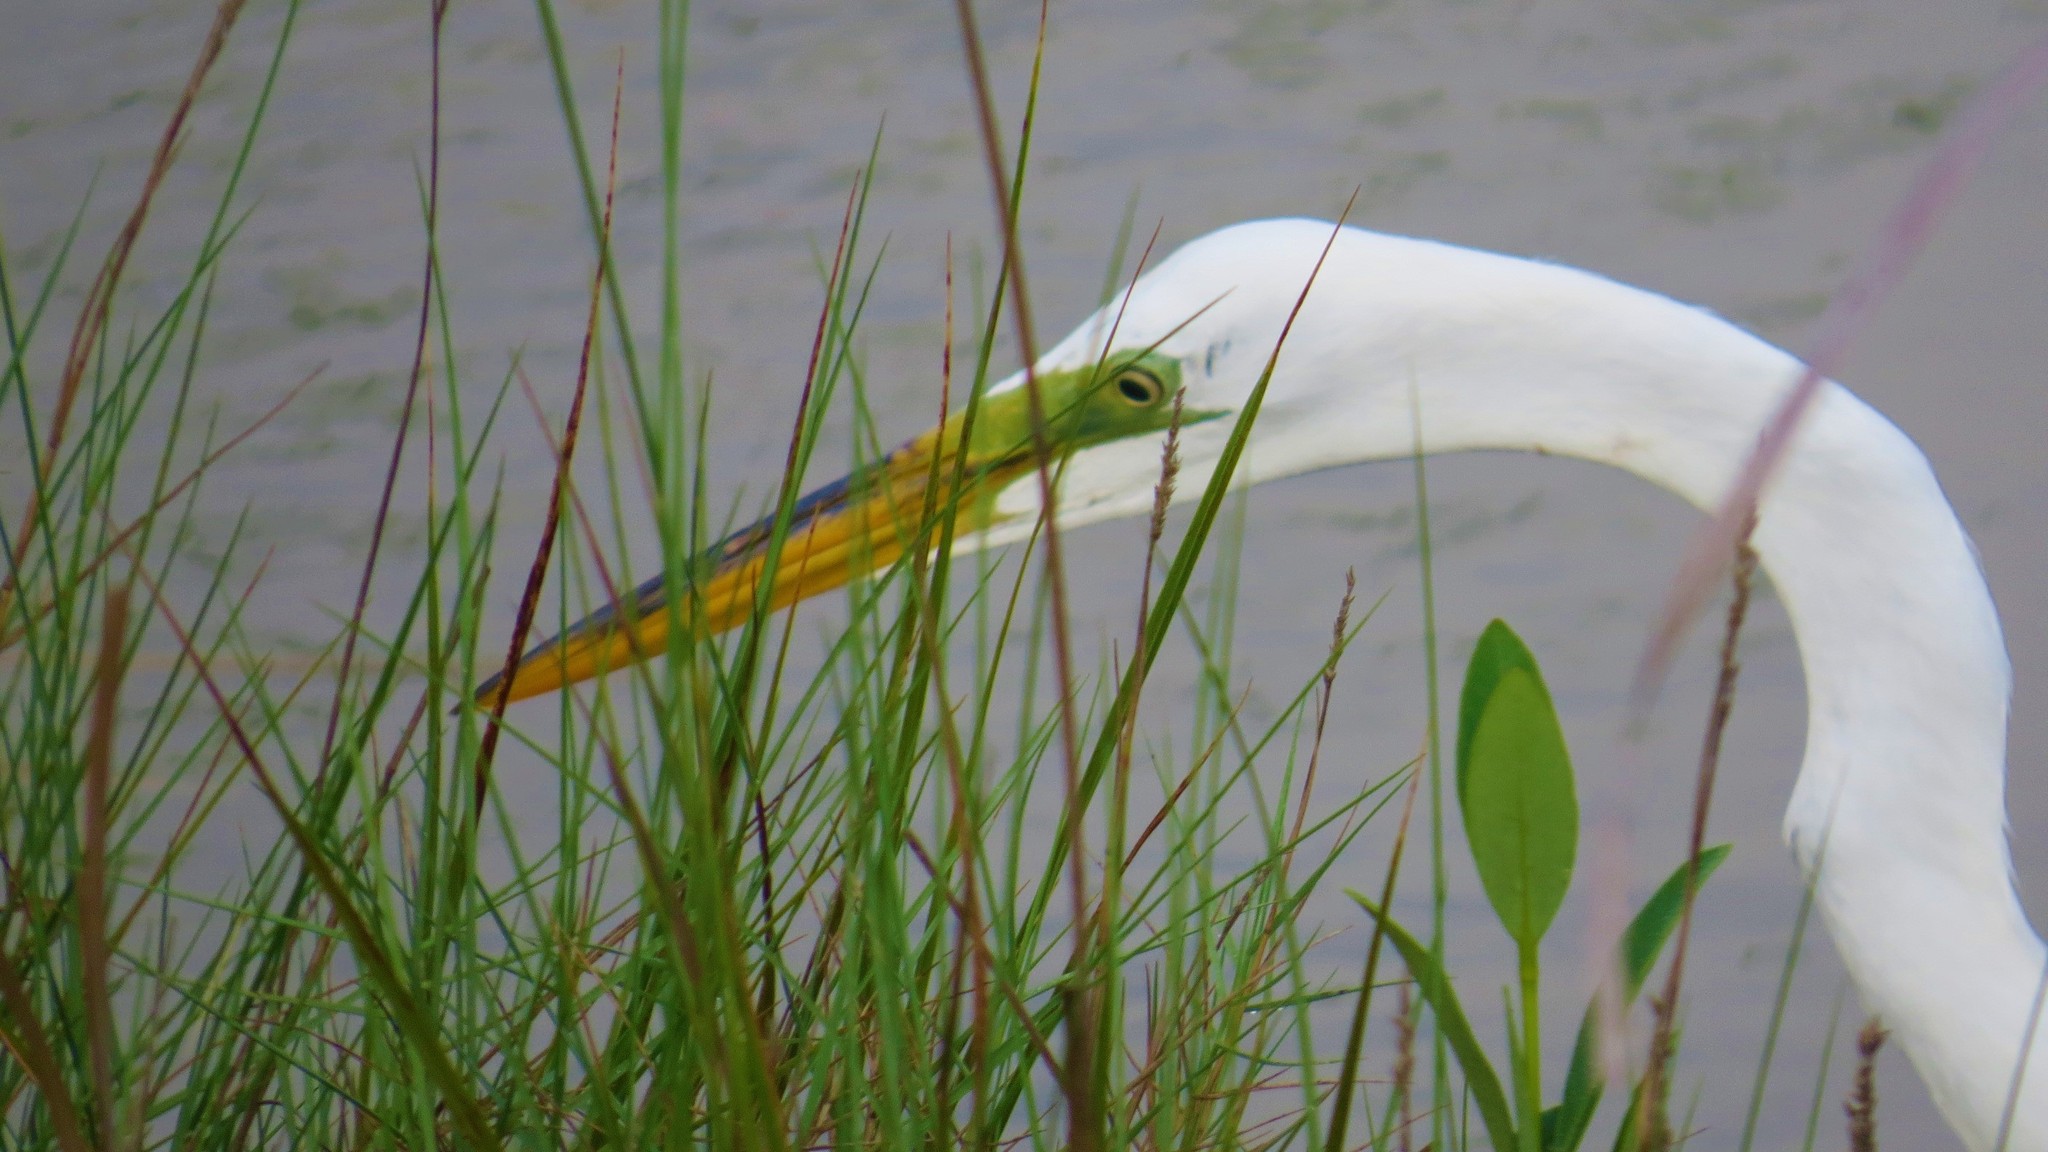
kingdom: Animalia
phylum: Chordata
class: Aves
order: Pelecaniformes
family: Ardeidae
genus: Ardea
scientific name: Ardea alba
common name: Great egret
